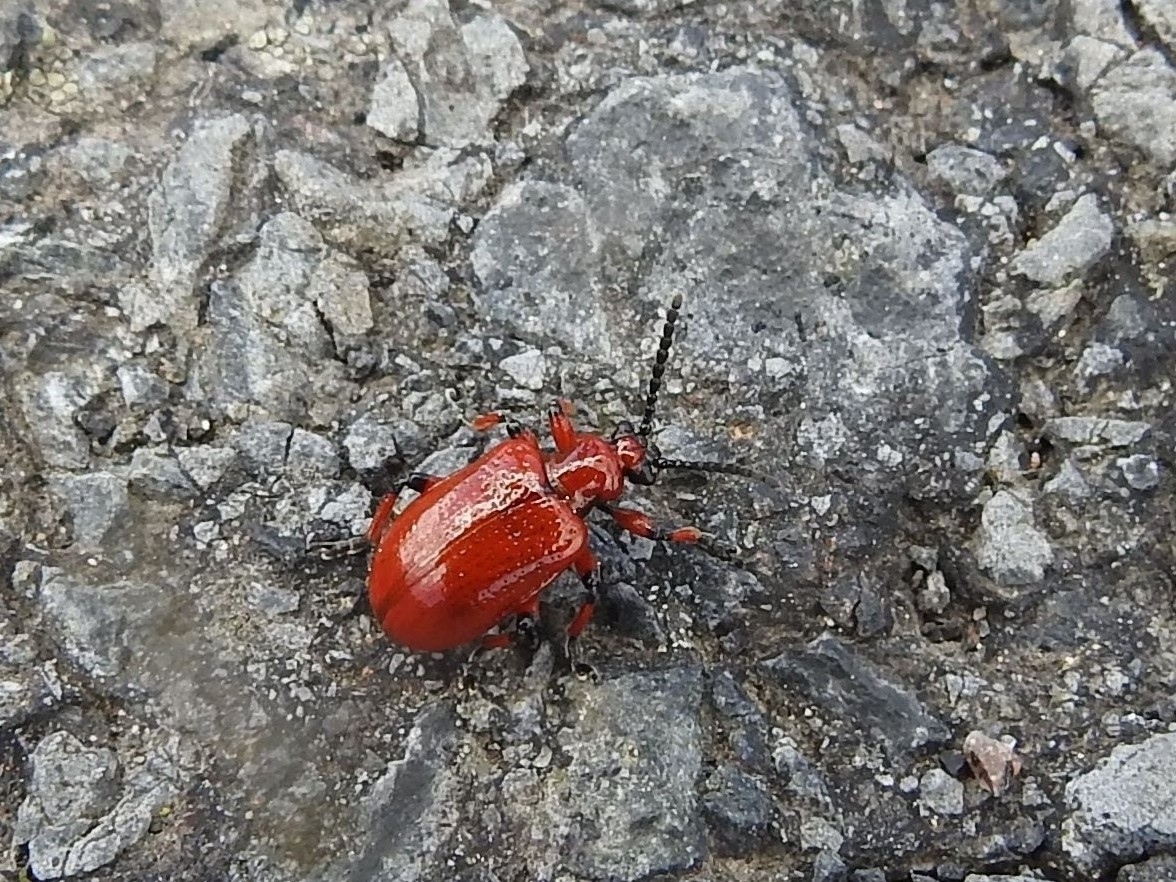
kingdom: Animalia
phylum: Arthropoda
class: Insecta
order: Coleoptera
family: Chrysomelidae
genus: Lilioceris
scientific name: Lilioceris merdigera
